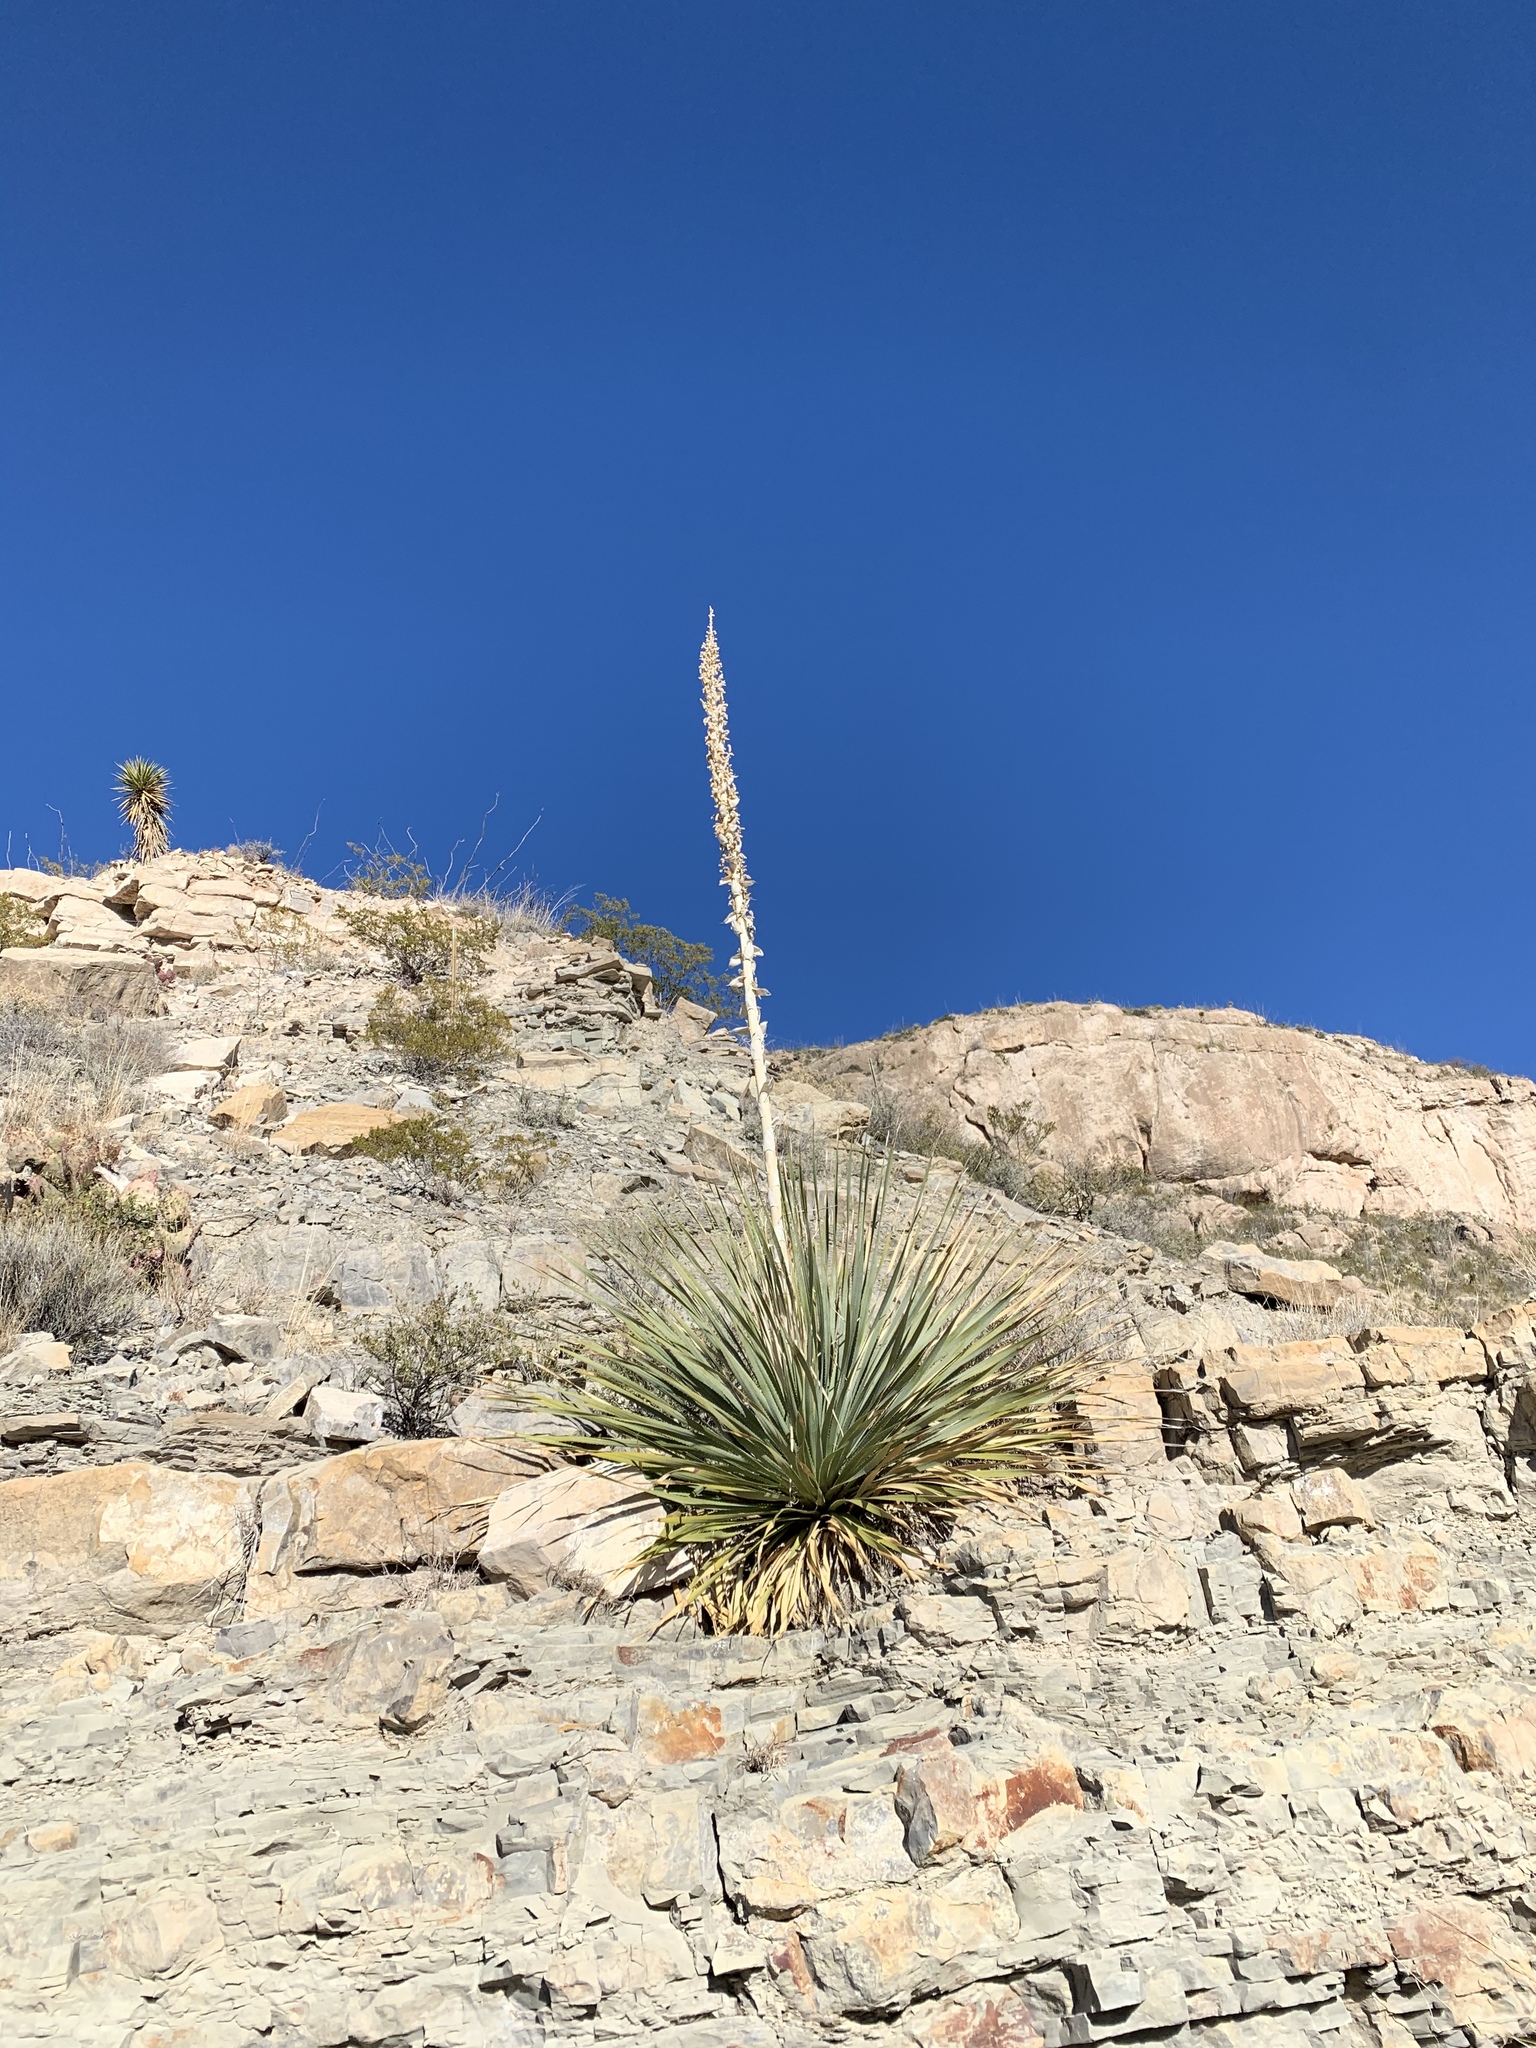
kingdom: Plantae
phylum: Tracheophyta
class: Liliopsida
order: Asparagales
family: Asparagaceae
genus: Dasylirion
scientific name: Dasylirion wheeleri
